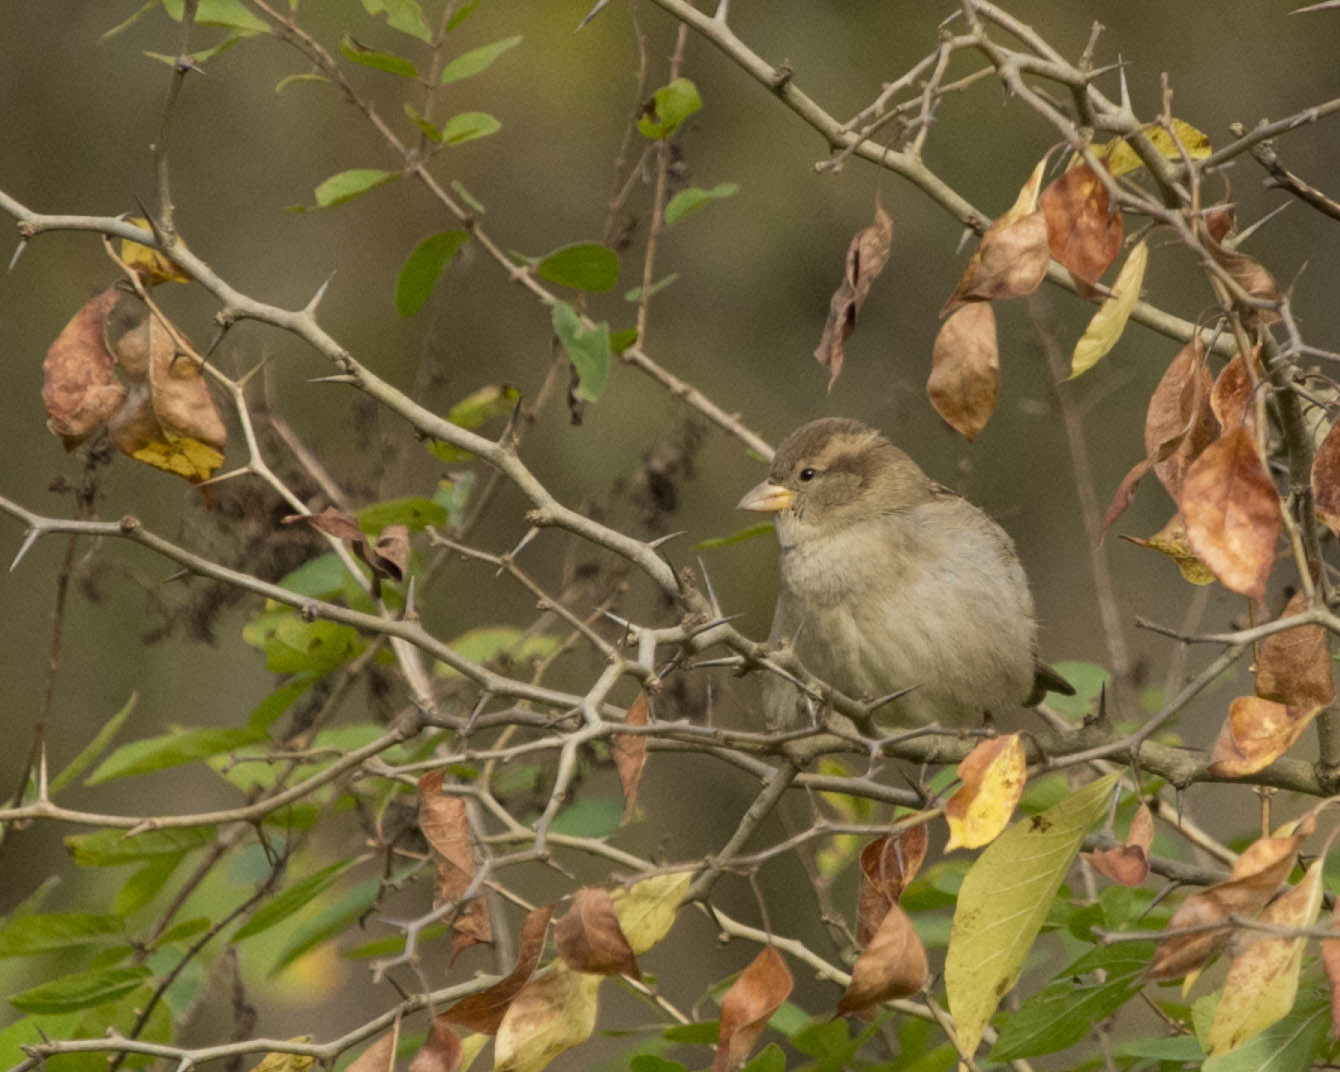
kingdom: Animalia
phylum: Chordata
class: Aves
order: Passeriformes
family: Passeridae
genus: Passer
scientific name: Passer domesticus
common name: House sparrow
